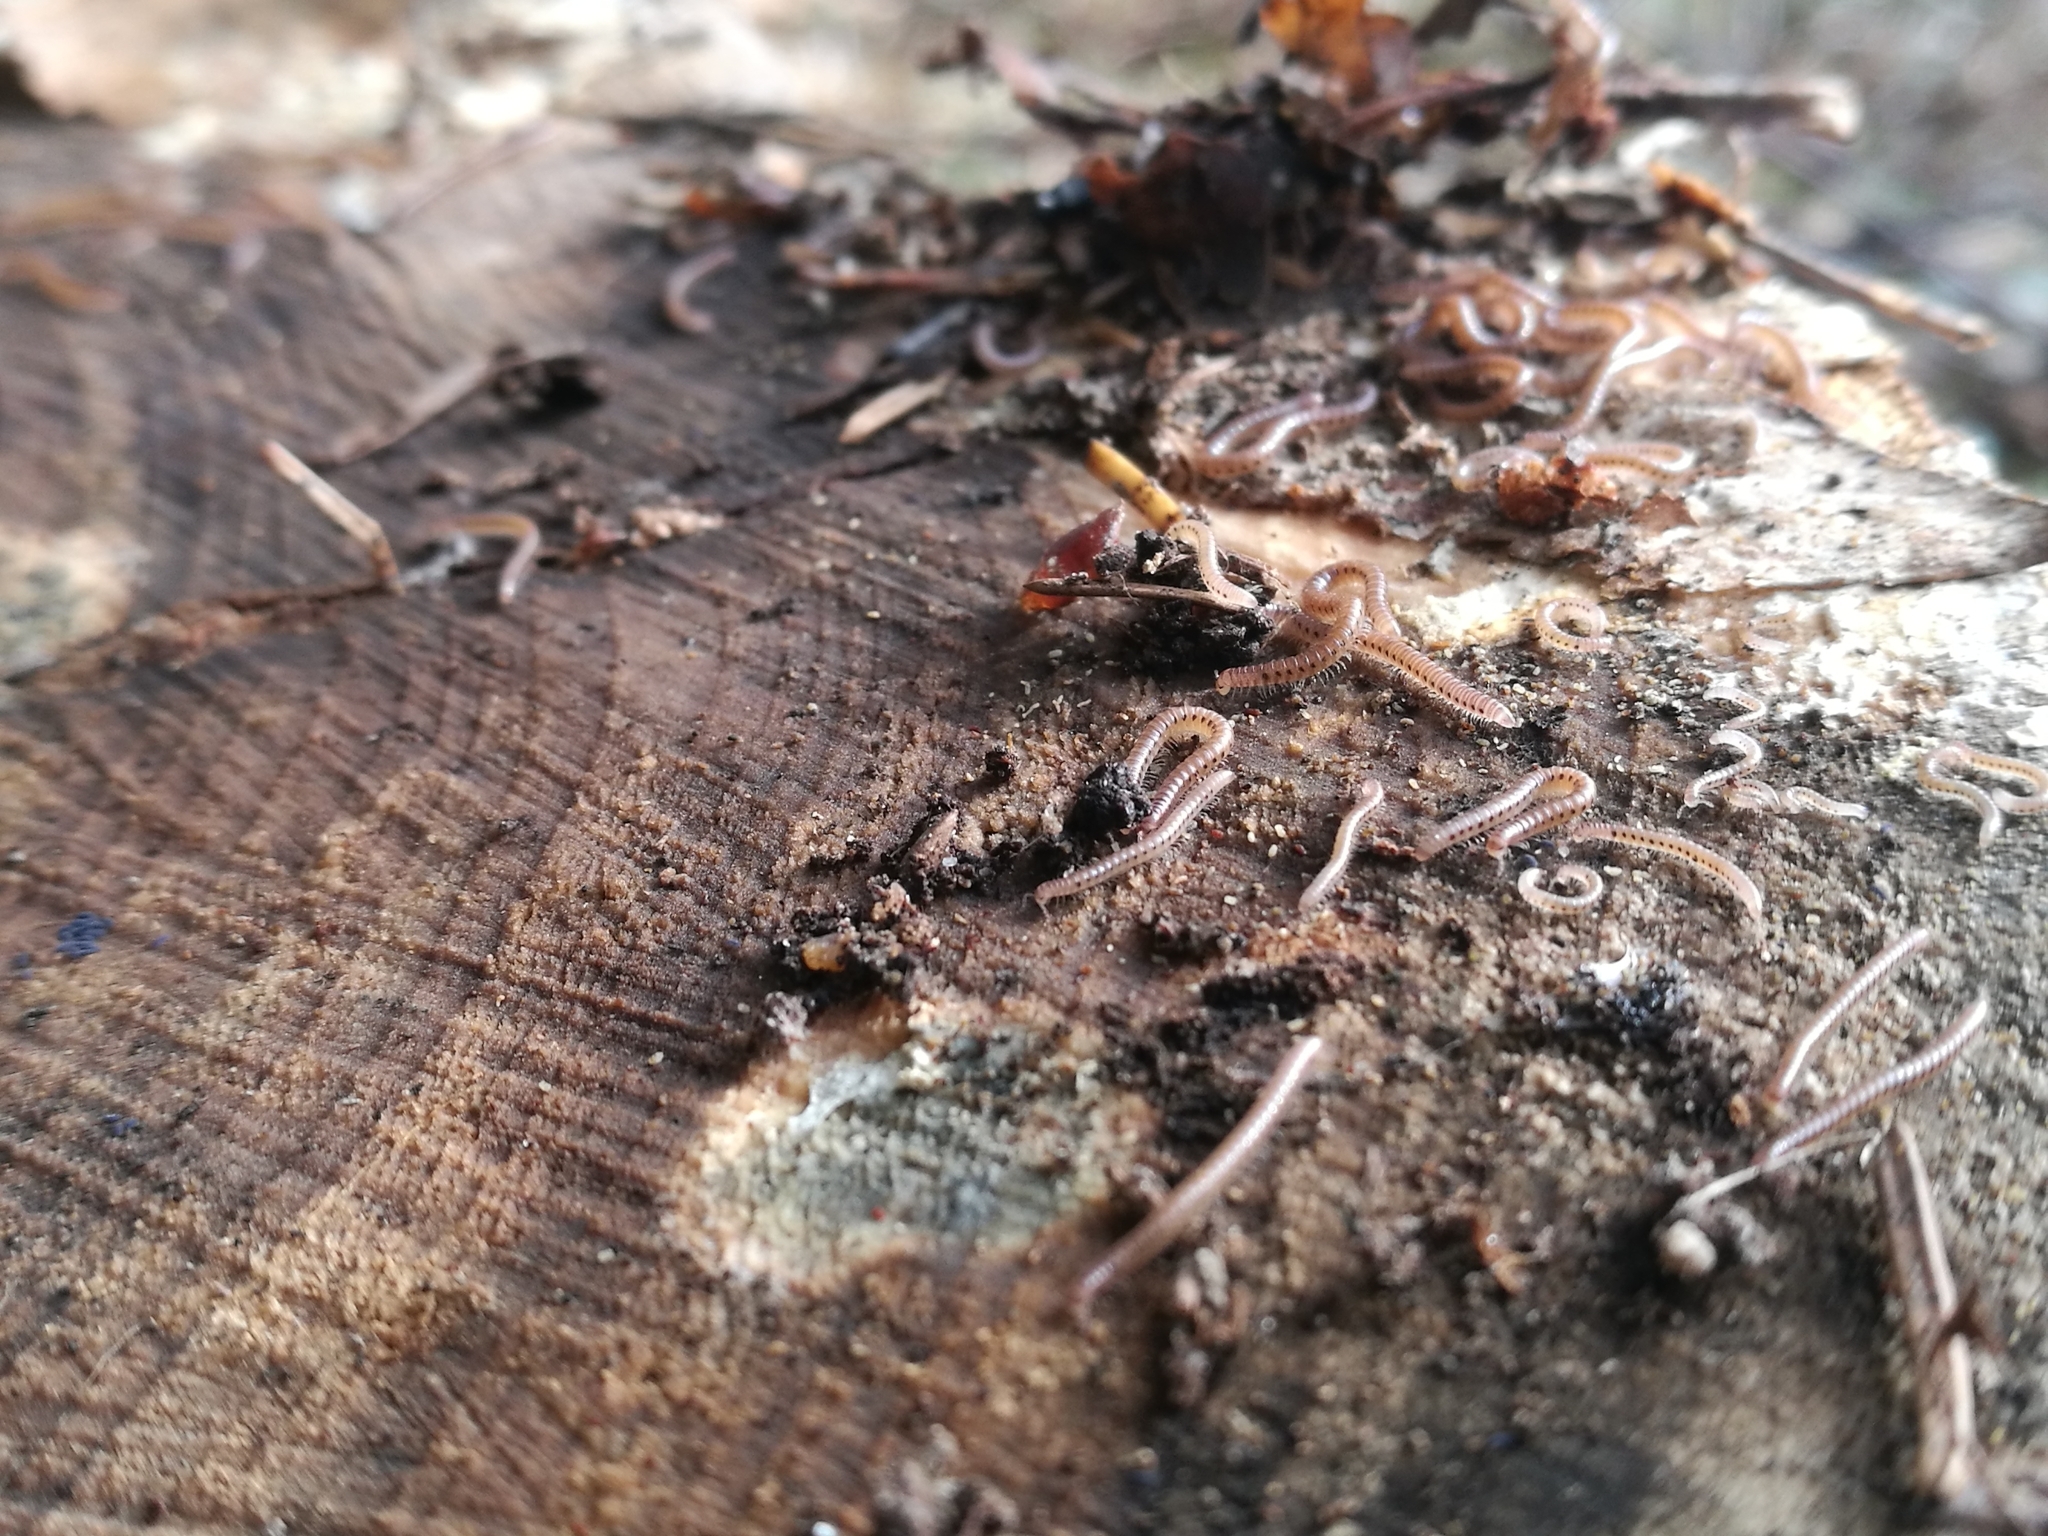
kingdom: Animalia
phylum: Arthropoda
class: Diplopoda
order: Julida
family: Blaniulidae
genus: Proteroiulus
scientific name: Proteroiulus fuscus
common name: Millipede
